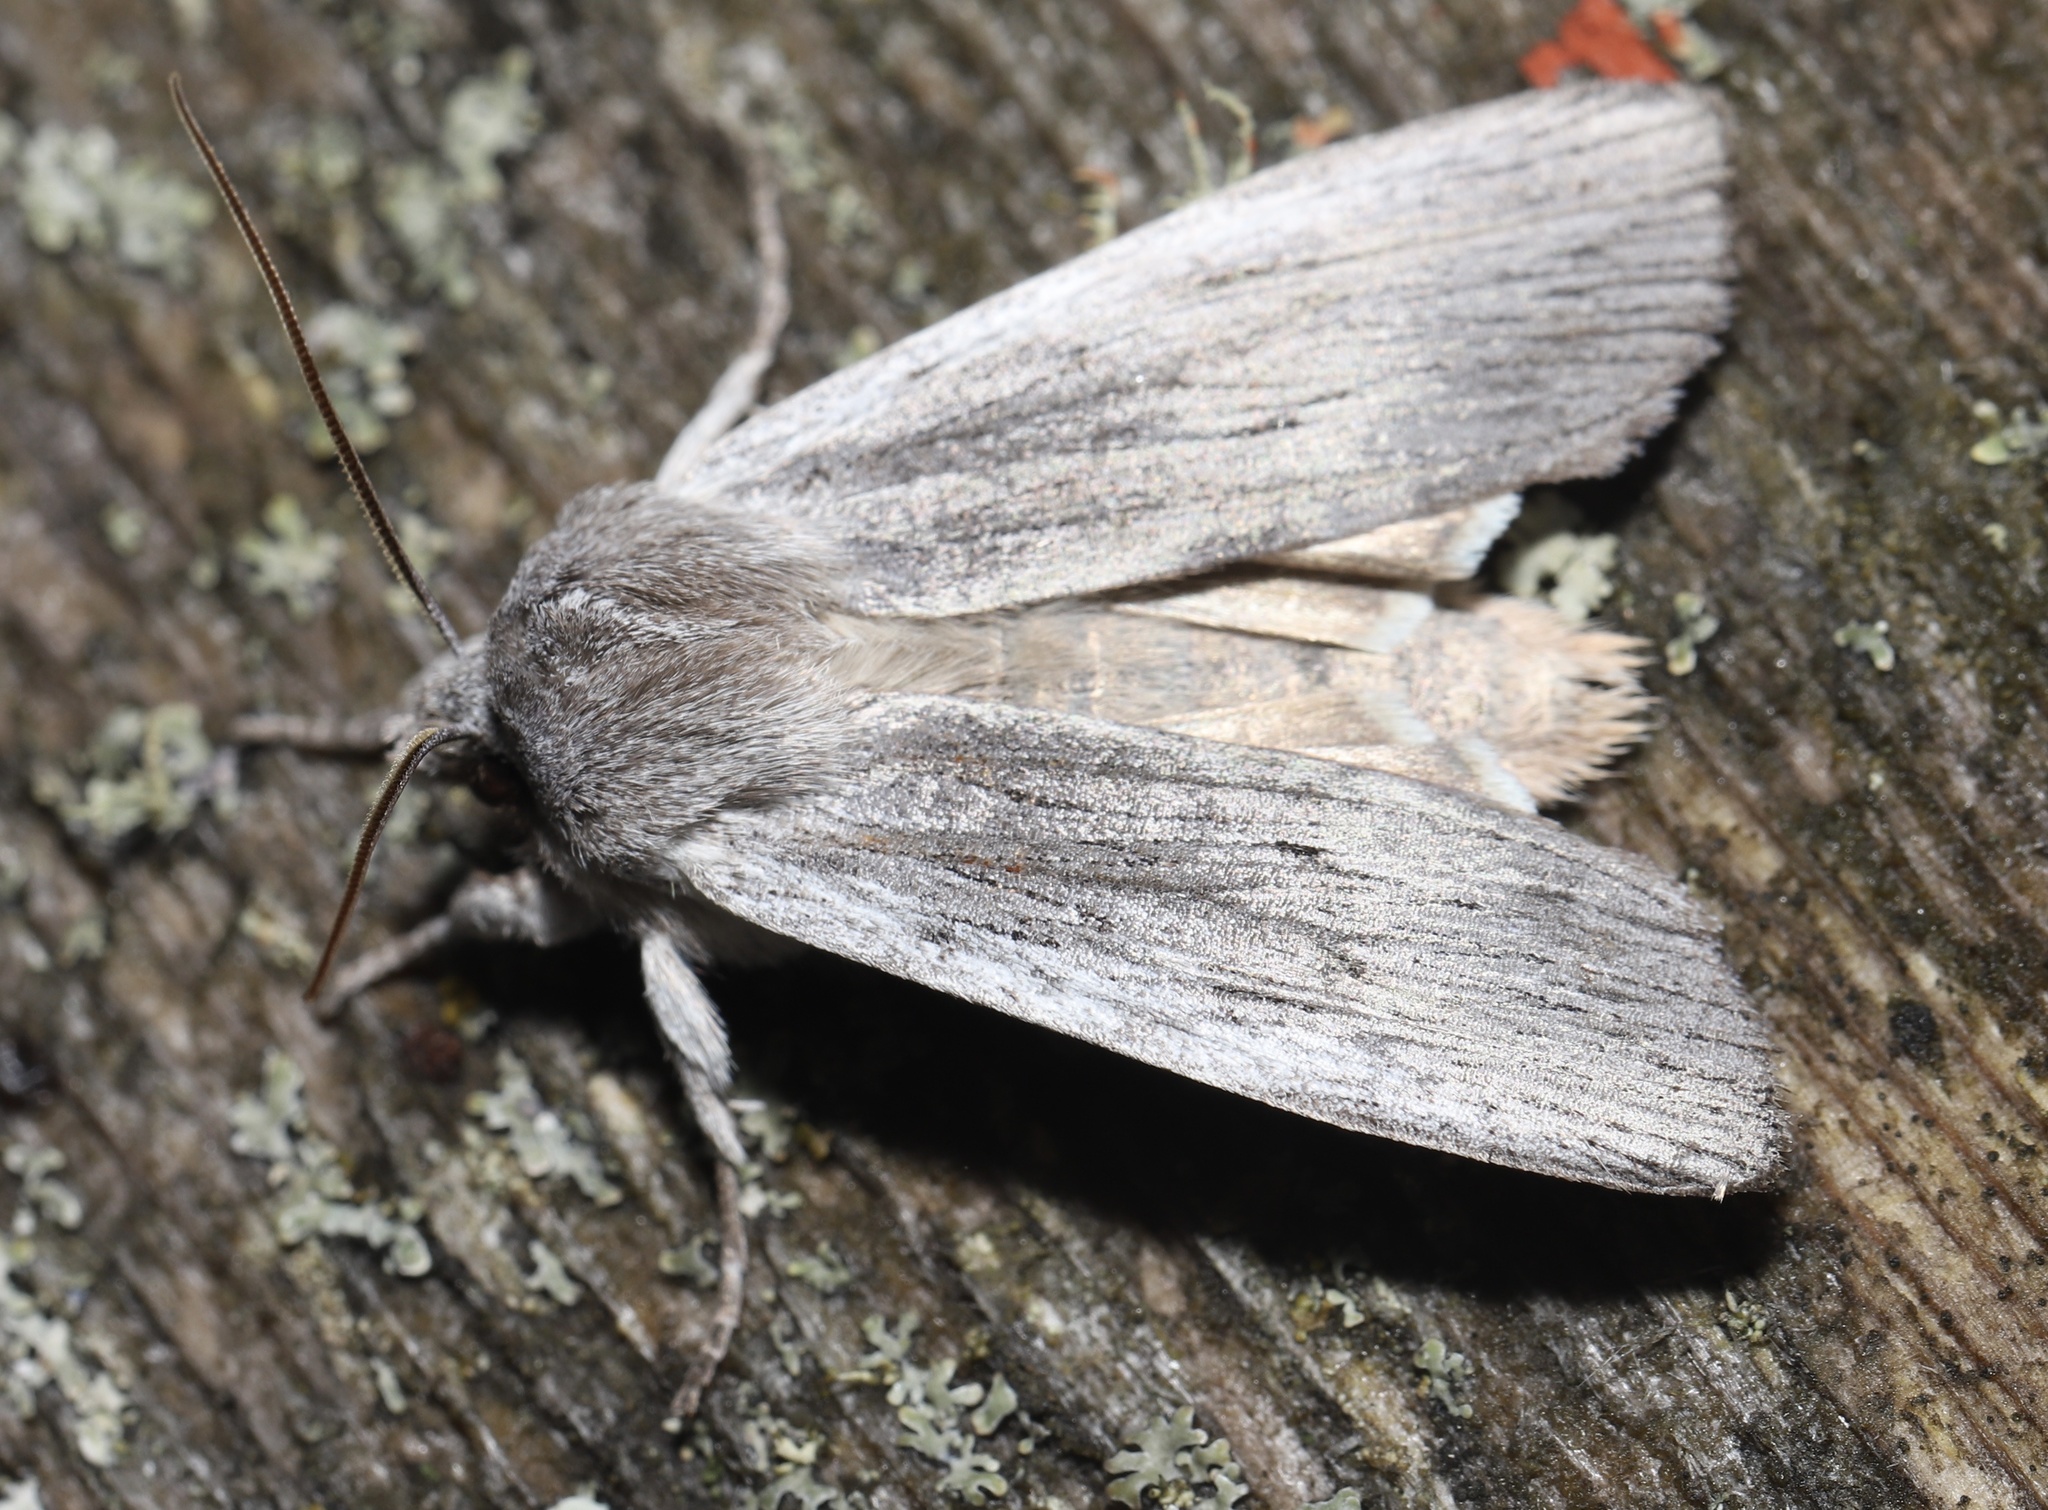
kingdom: Animalia
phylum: Arthropoda
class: Insecta
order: Lepidoptera
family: Noctuidae
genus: Lithophane
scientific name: Lithophane fagina
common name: Hoary pinion moth
